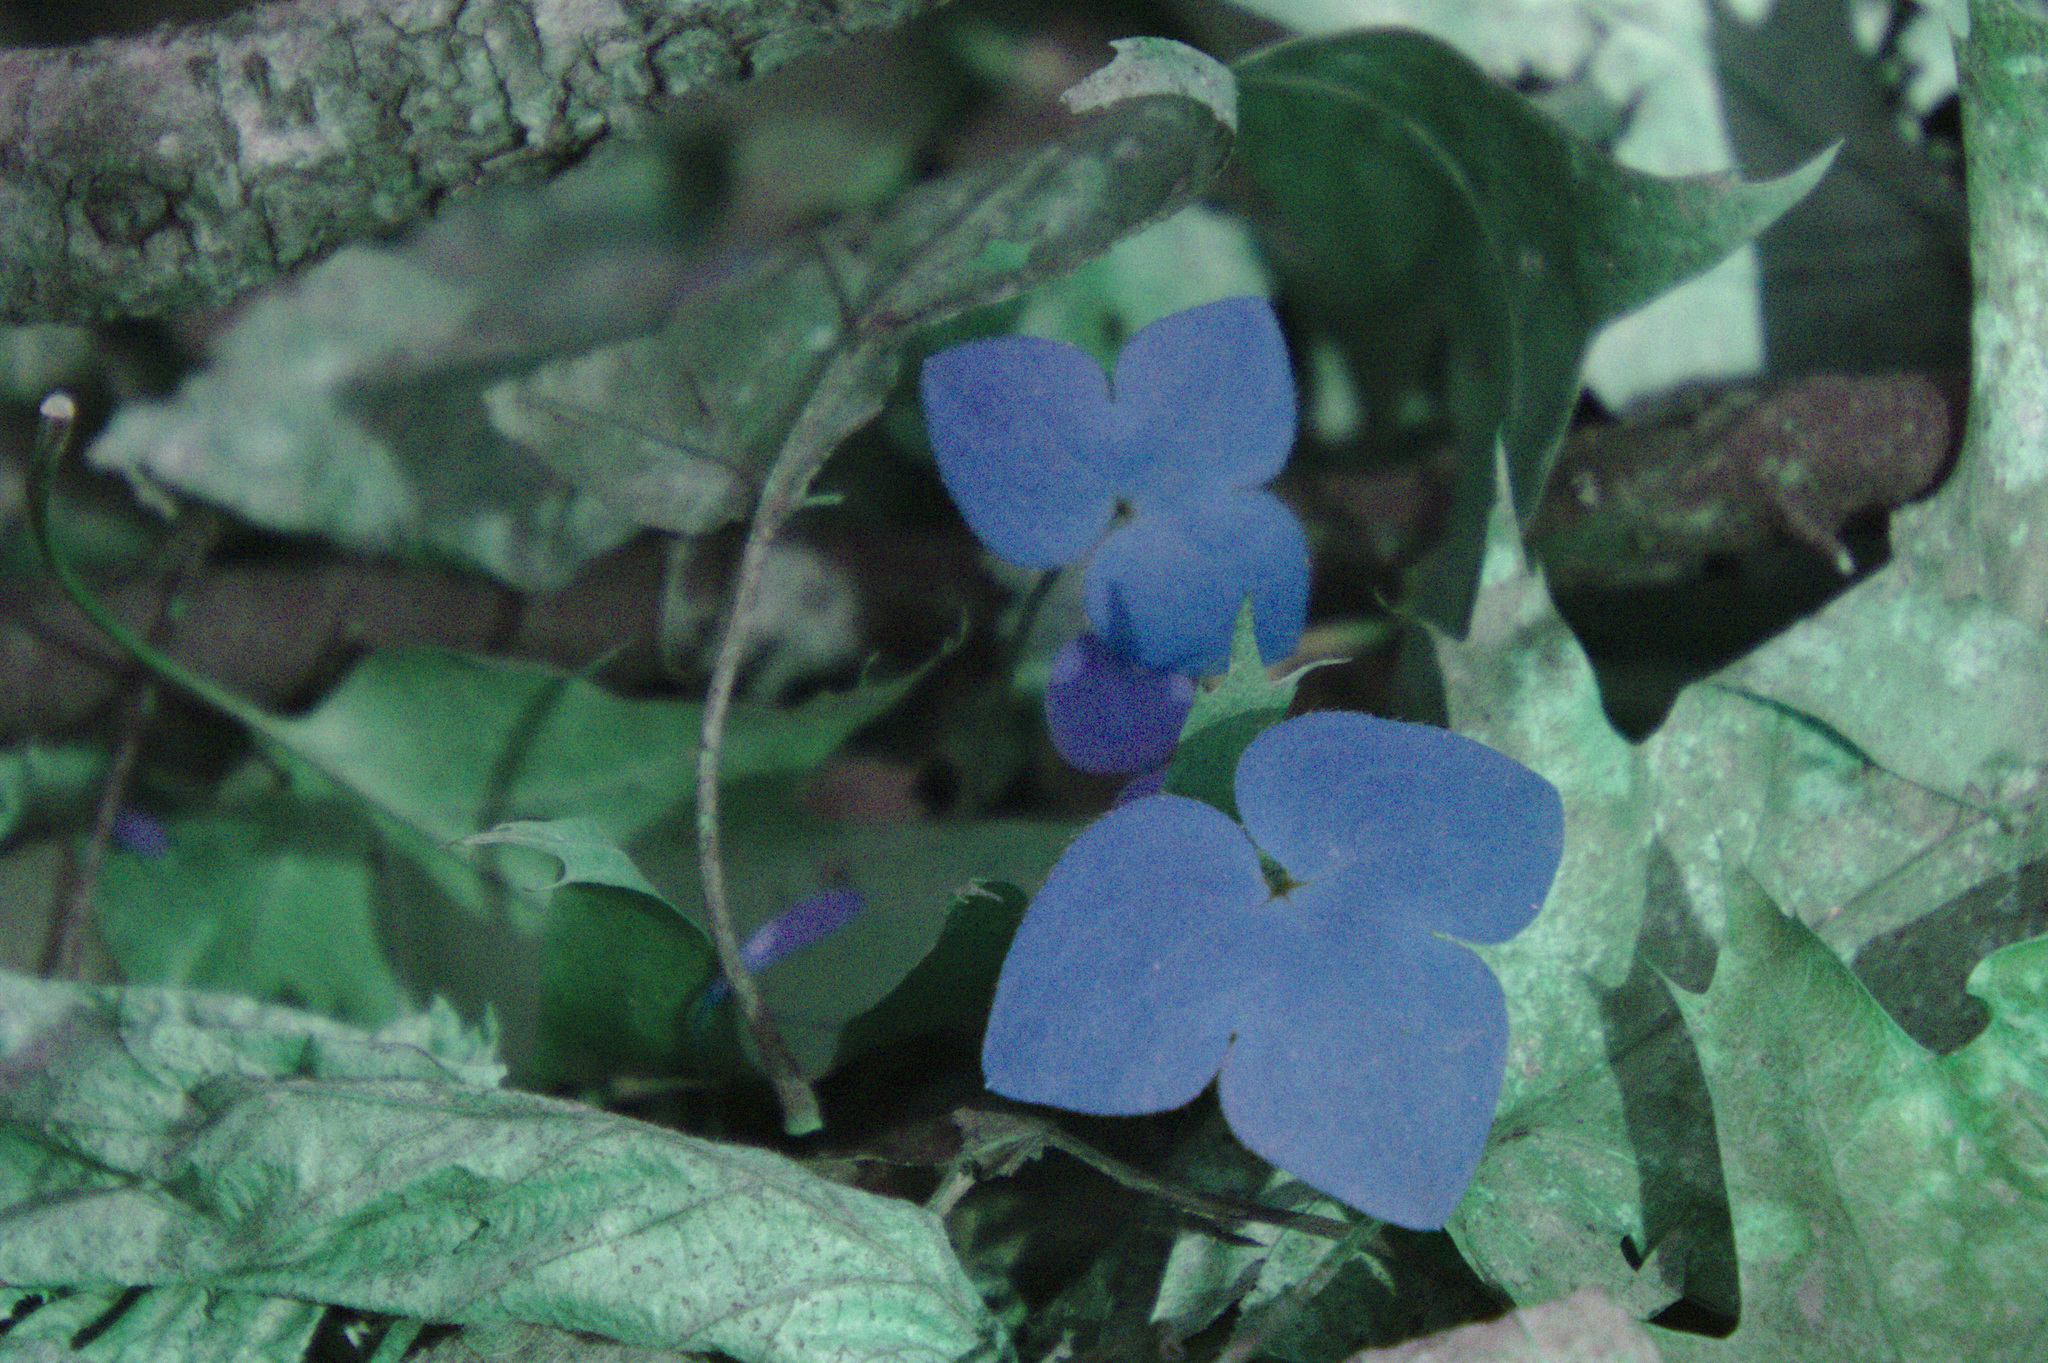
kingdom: Plantae
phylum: Tracheophyta
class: Magnoliopsida
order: Ranunculales
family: Ranunculaceae
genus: Hepatica
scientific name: Hepatica acutiloba
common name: Sharp-lobed hepatica
